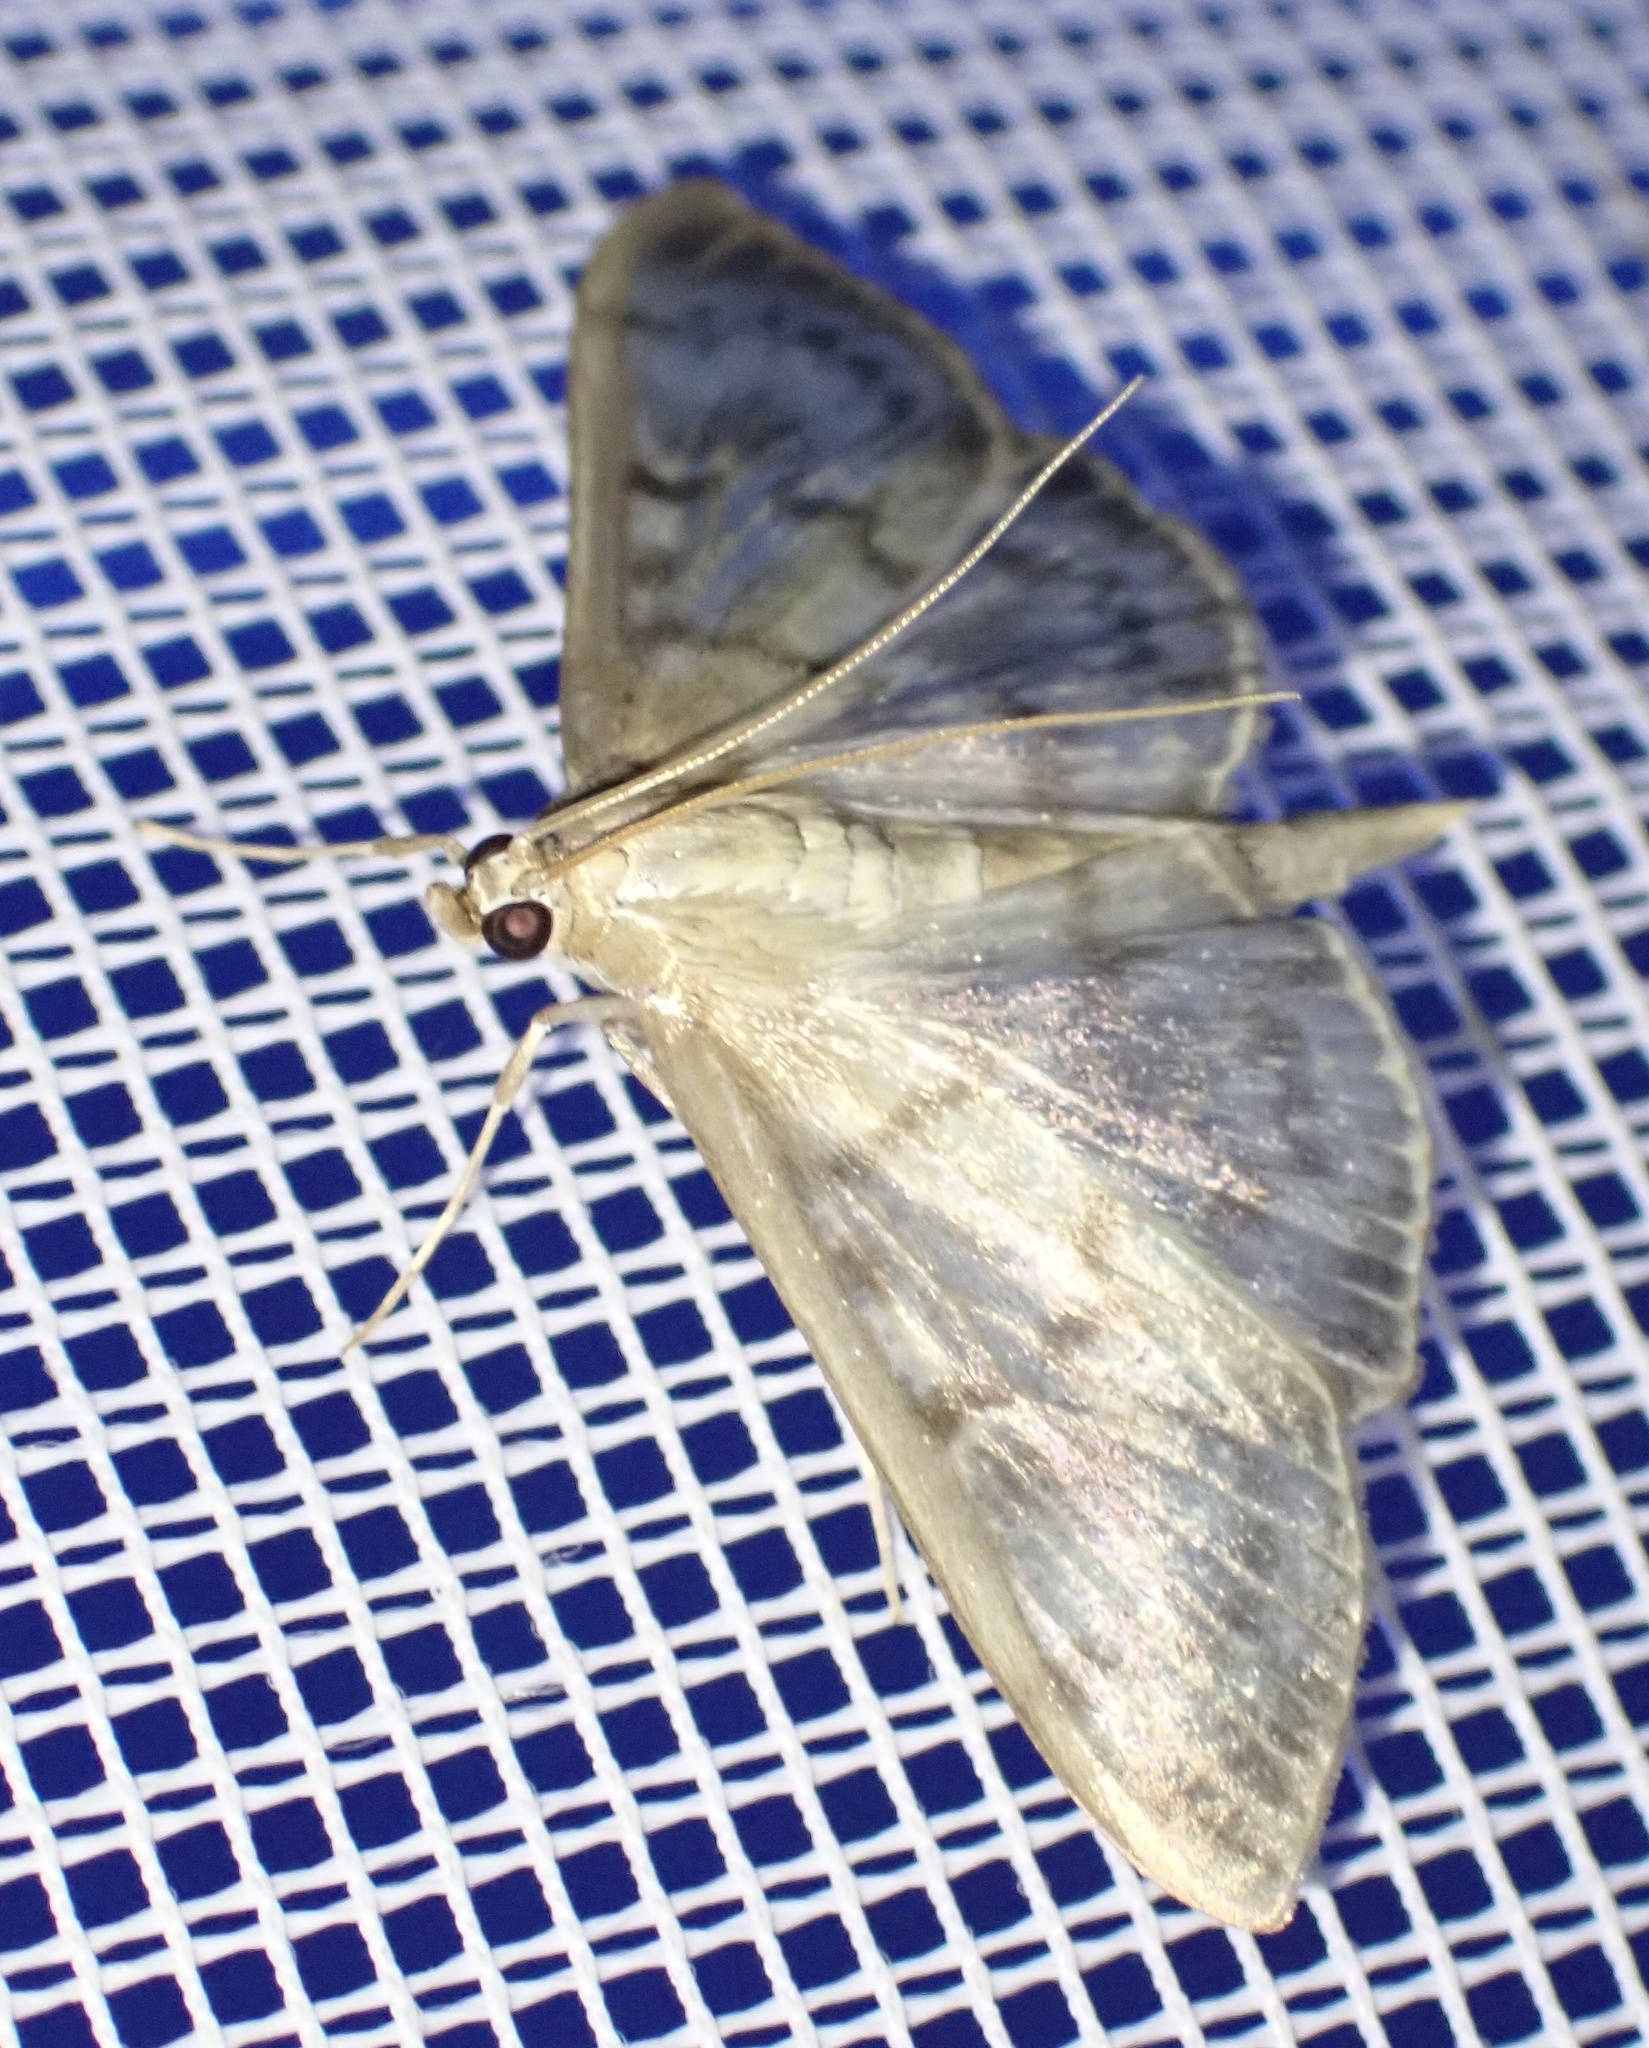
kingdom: Animalia
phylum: Arthropoda
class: Insecta
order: Lepidoptera
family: Crambidae
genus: Patania
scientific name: Patania ruralis
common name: Mother of pearl
